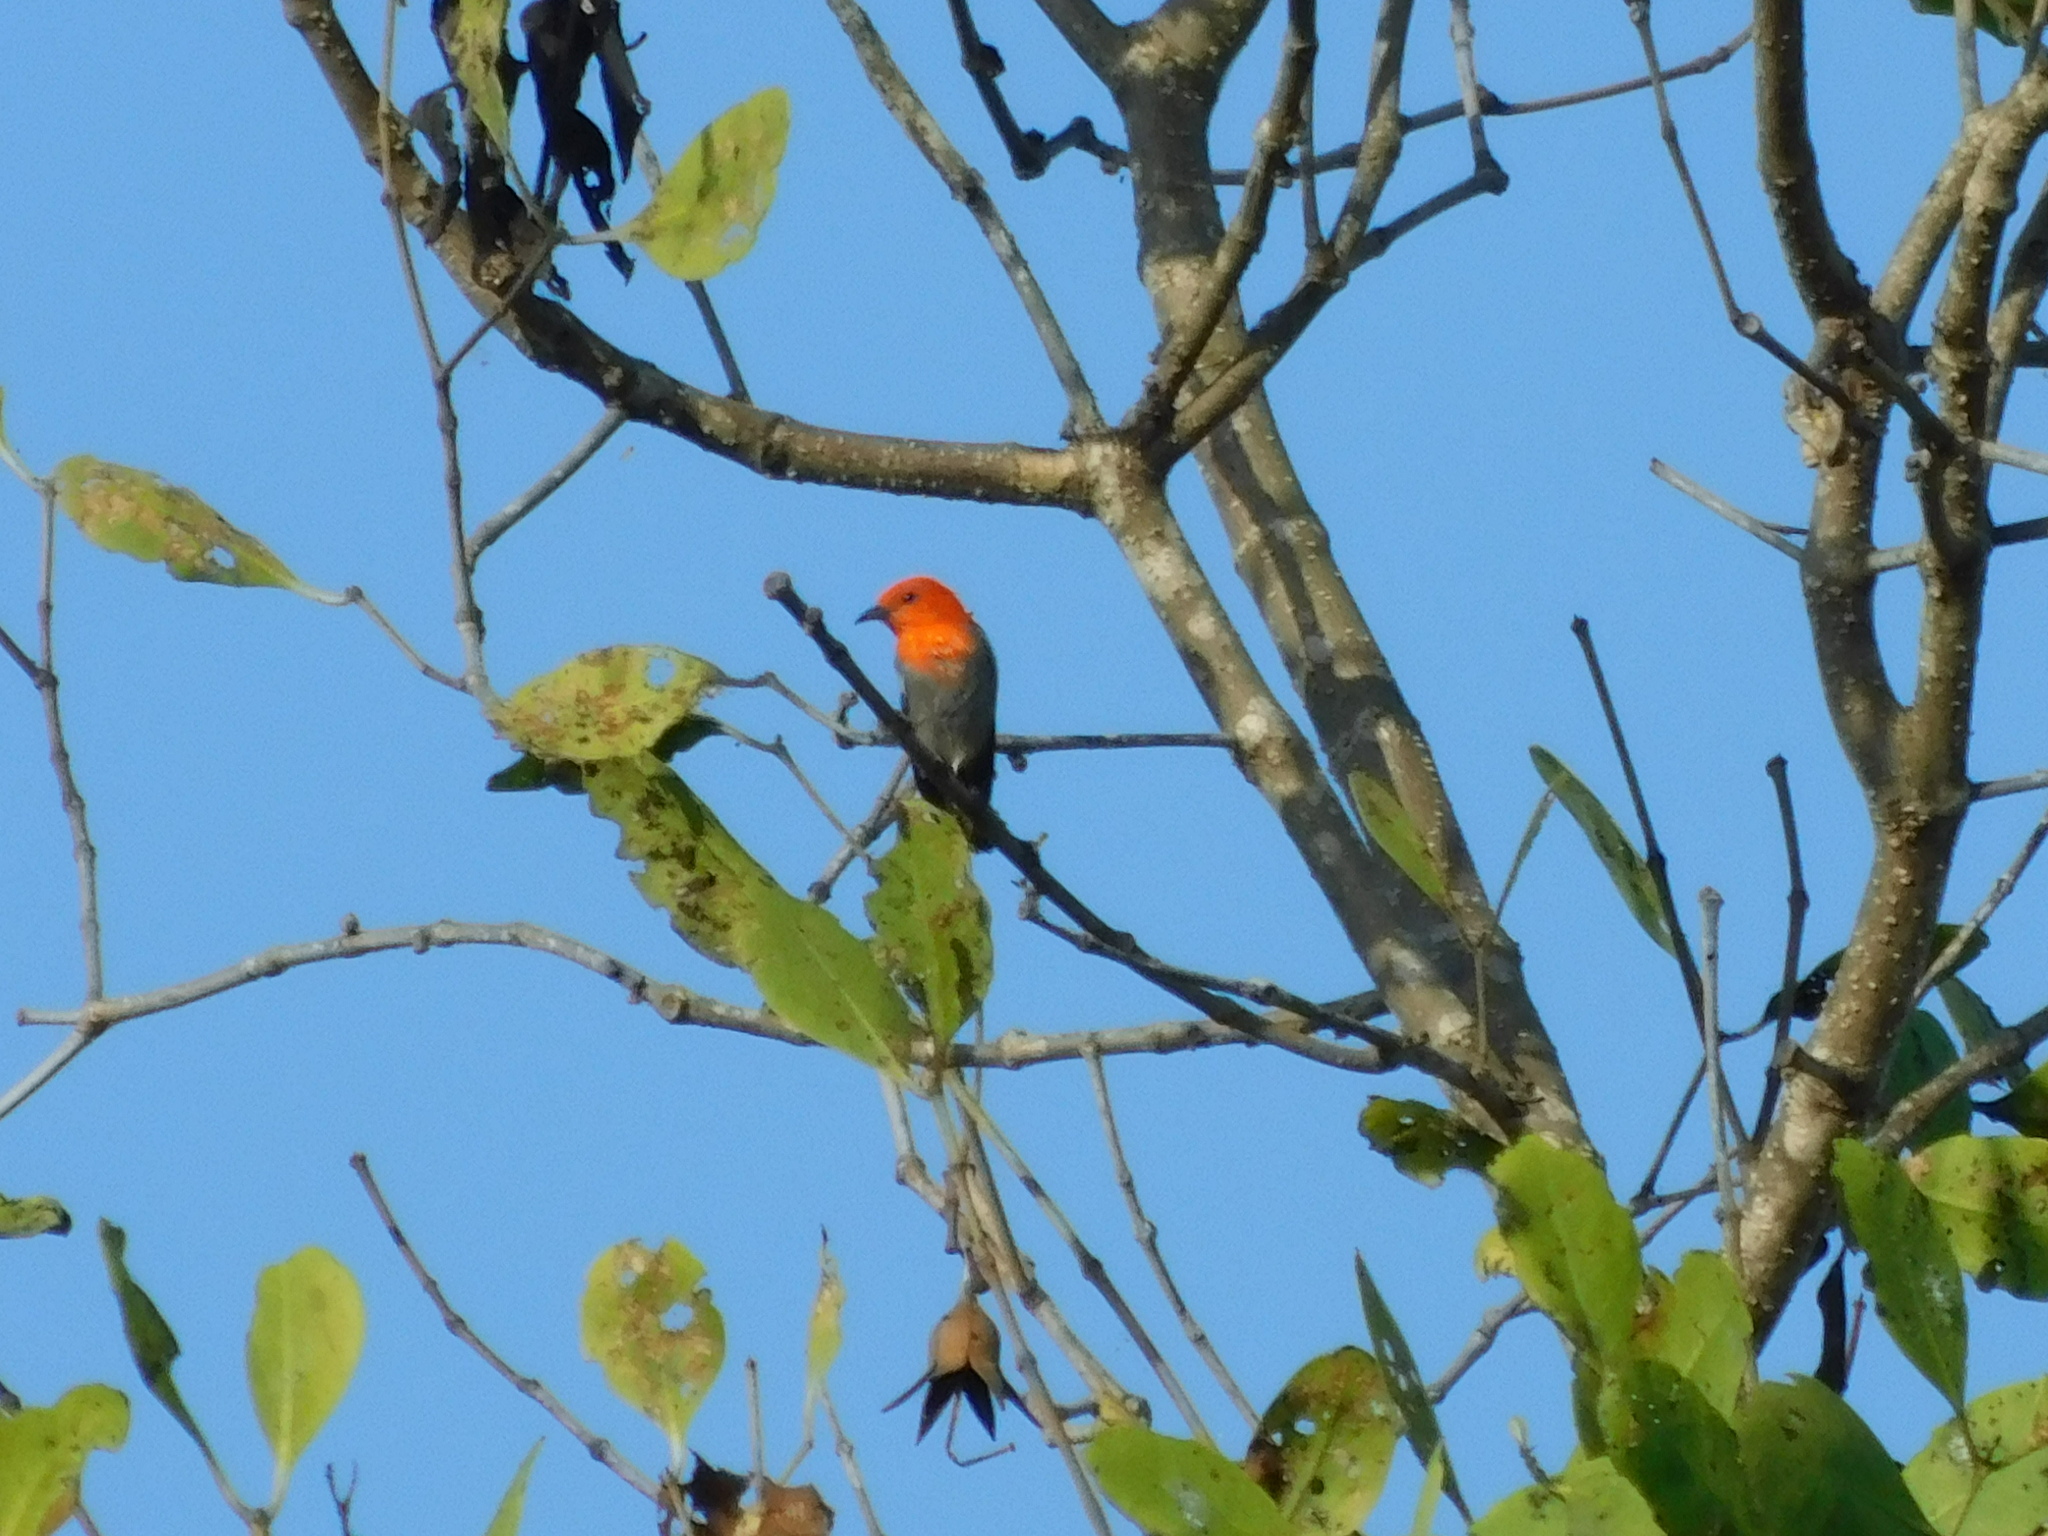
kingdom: Animalia
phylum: Chordata
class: Aves
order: Passeriformes
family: Dicaeidae
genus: Dicaeum
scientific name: Dicaeum trochileum
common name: Scarlet-headed flowerpecker
